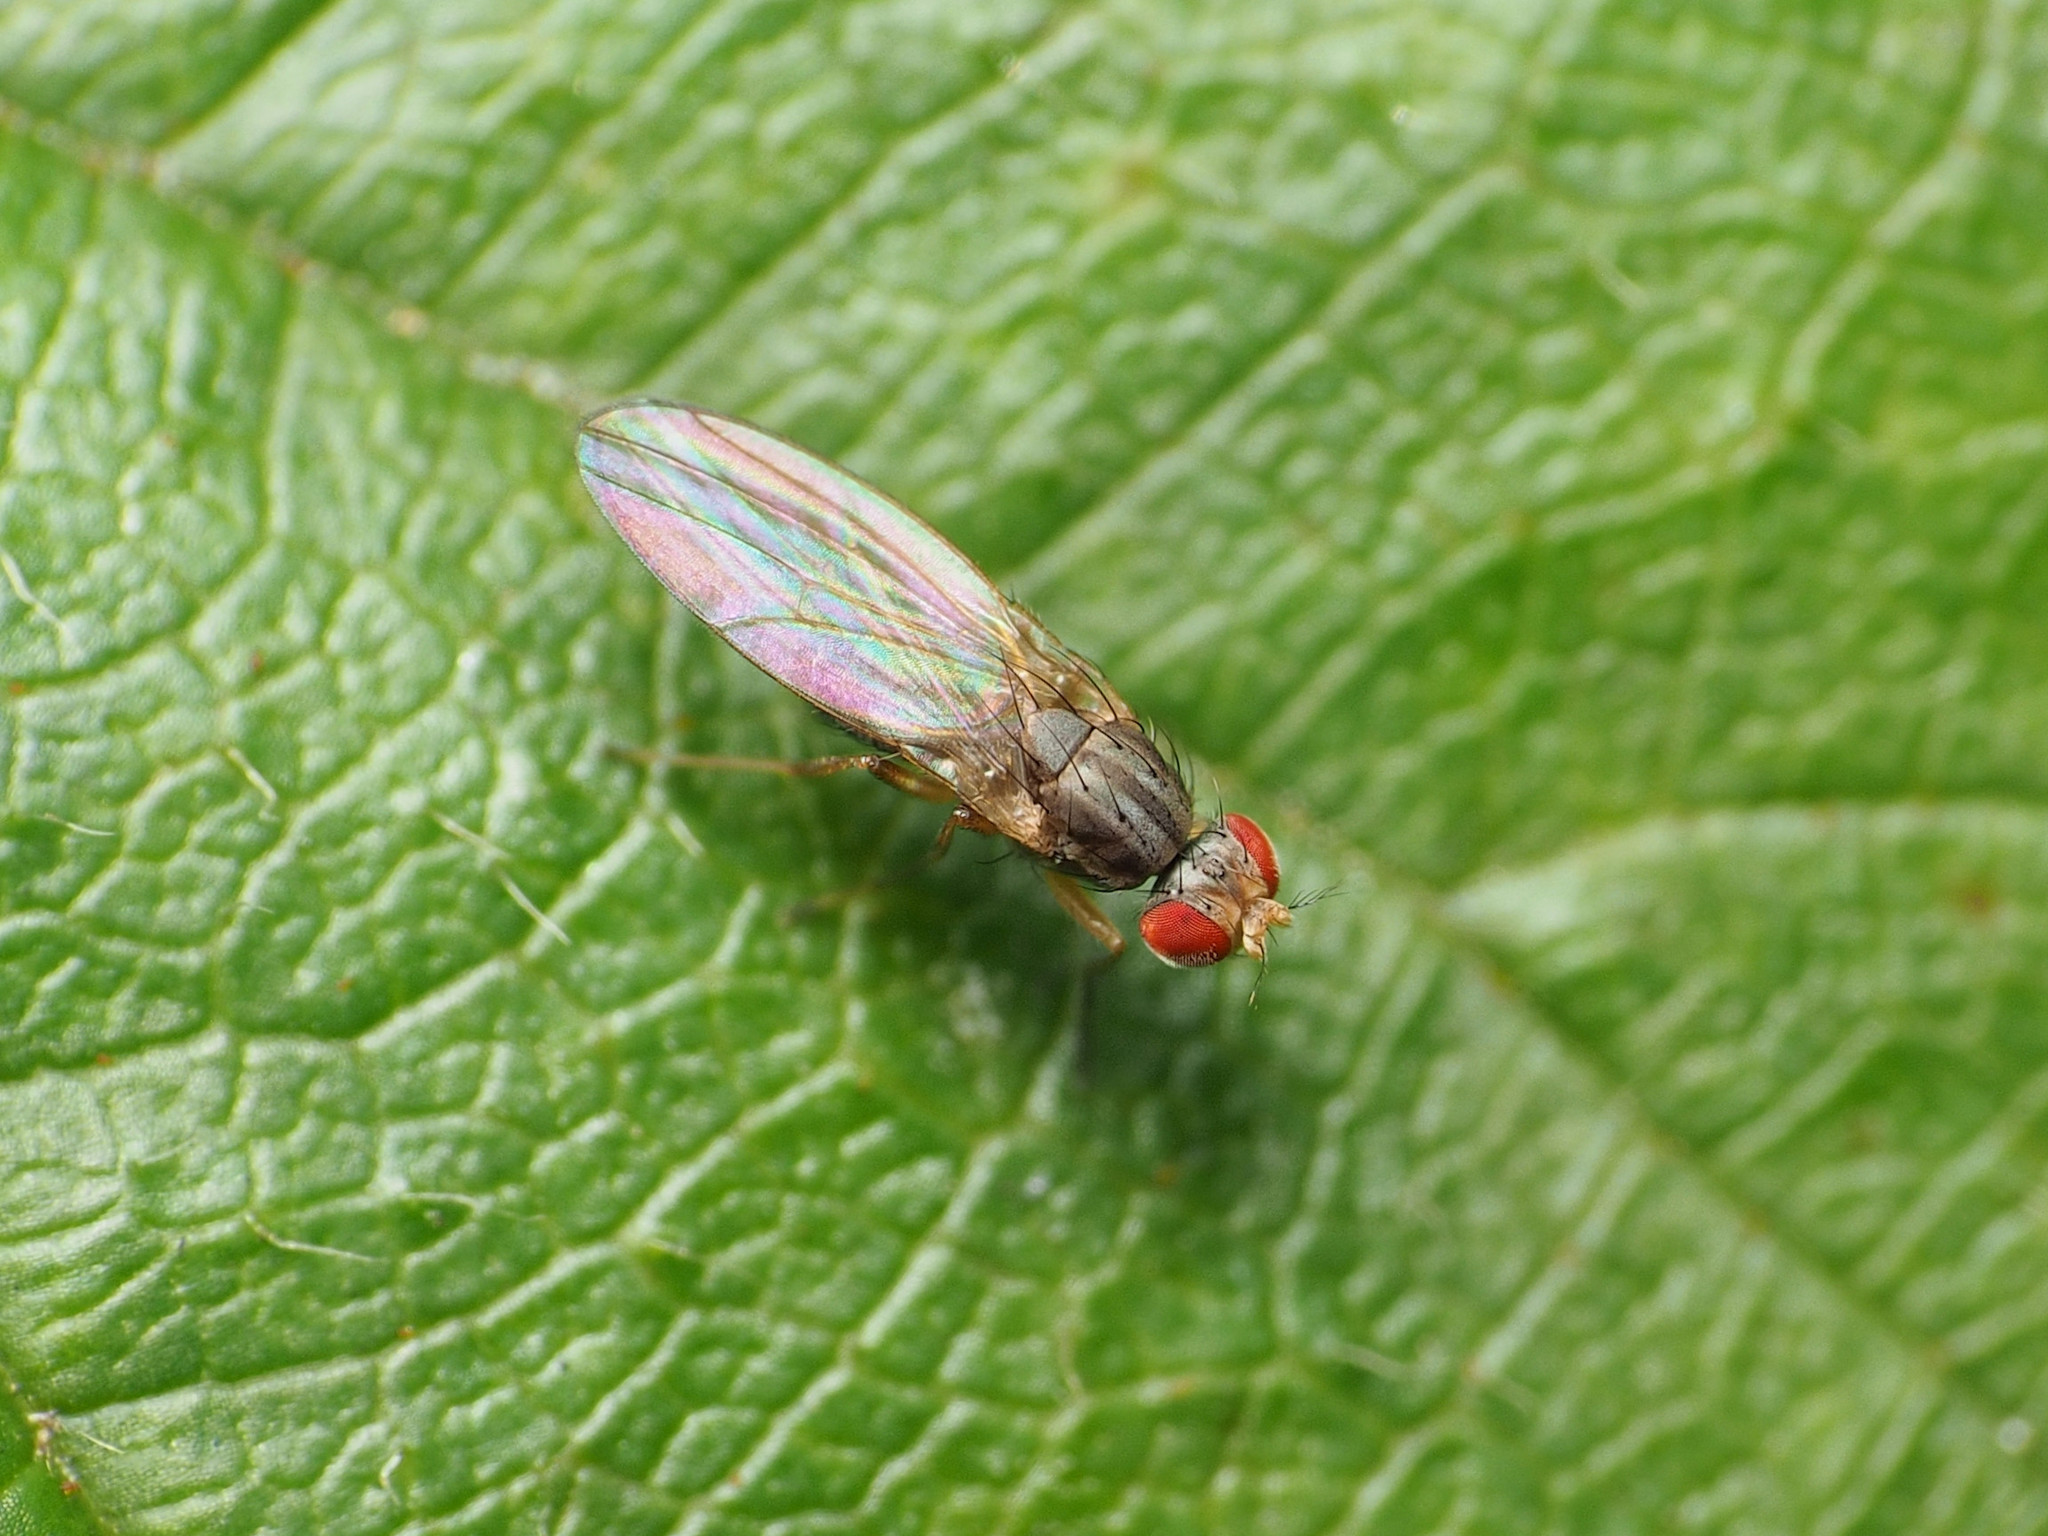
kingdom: Animalia
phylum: Arthropoda
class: Insecta
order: Diptera
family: Drosophilidae
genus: Scaptomyza
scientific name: Scaptomyza pallida
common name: Pomace fly
